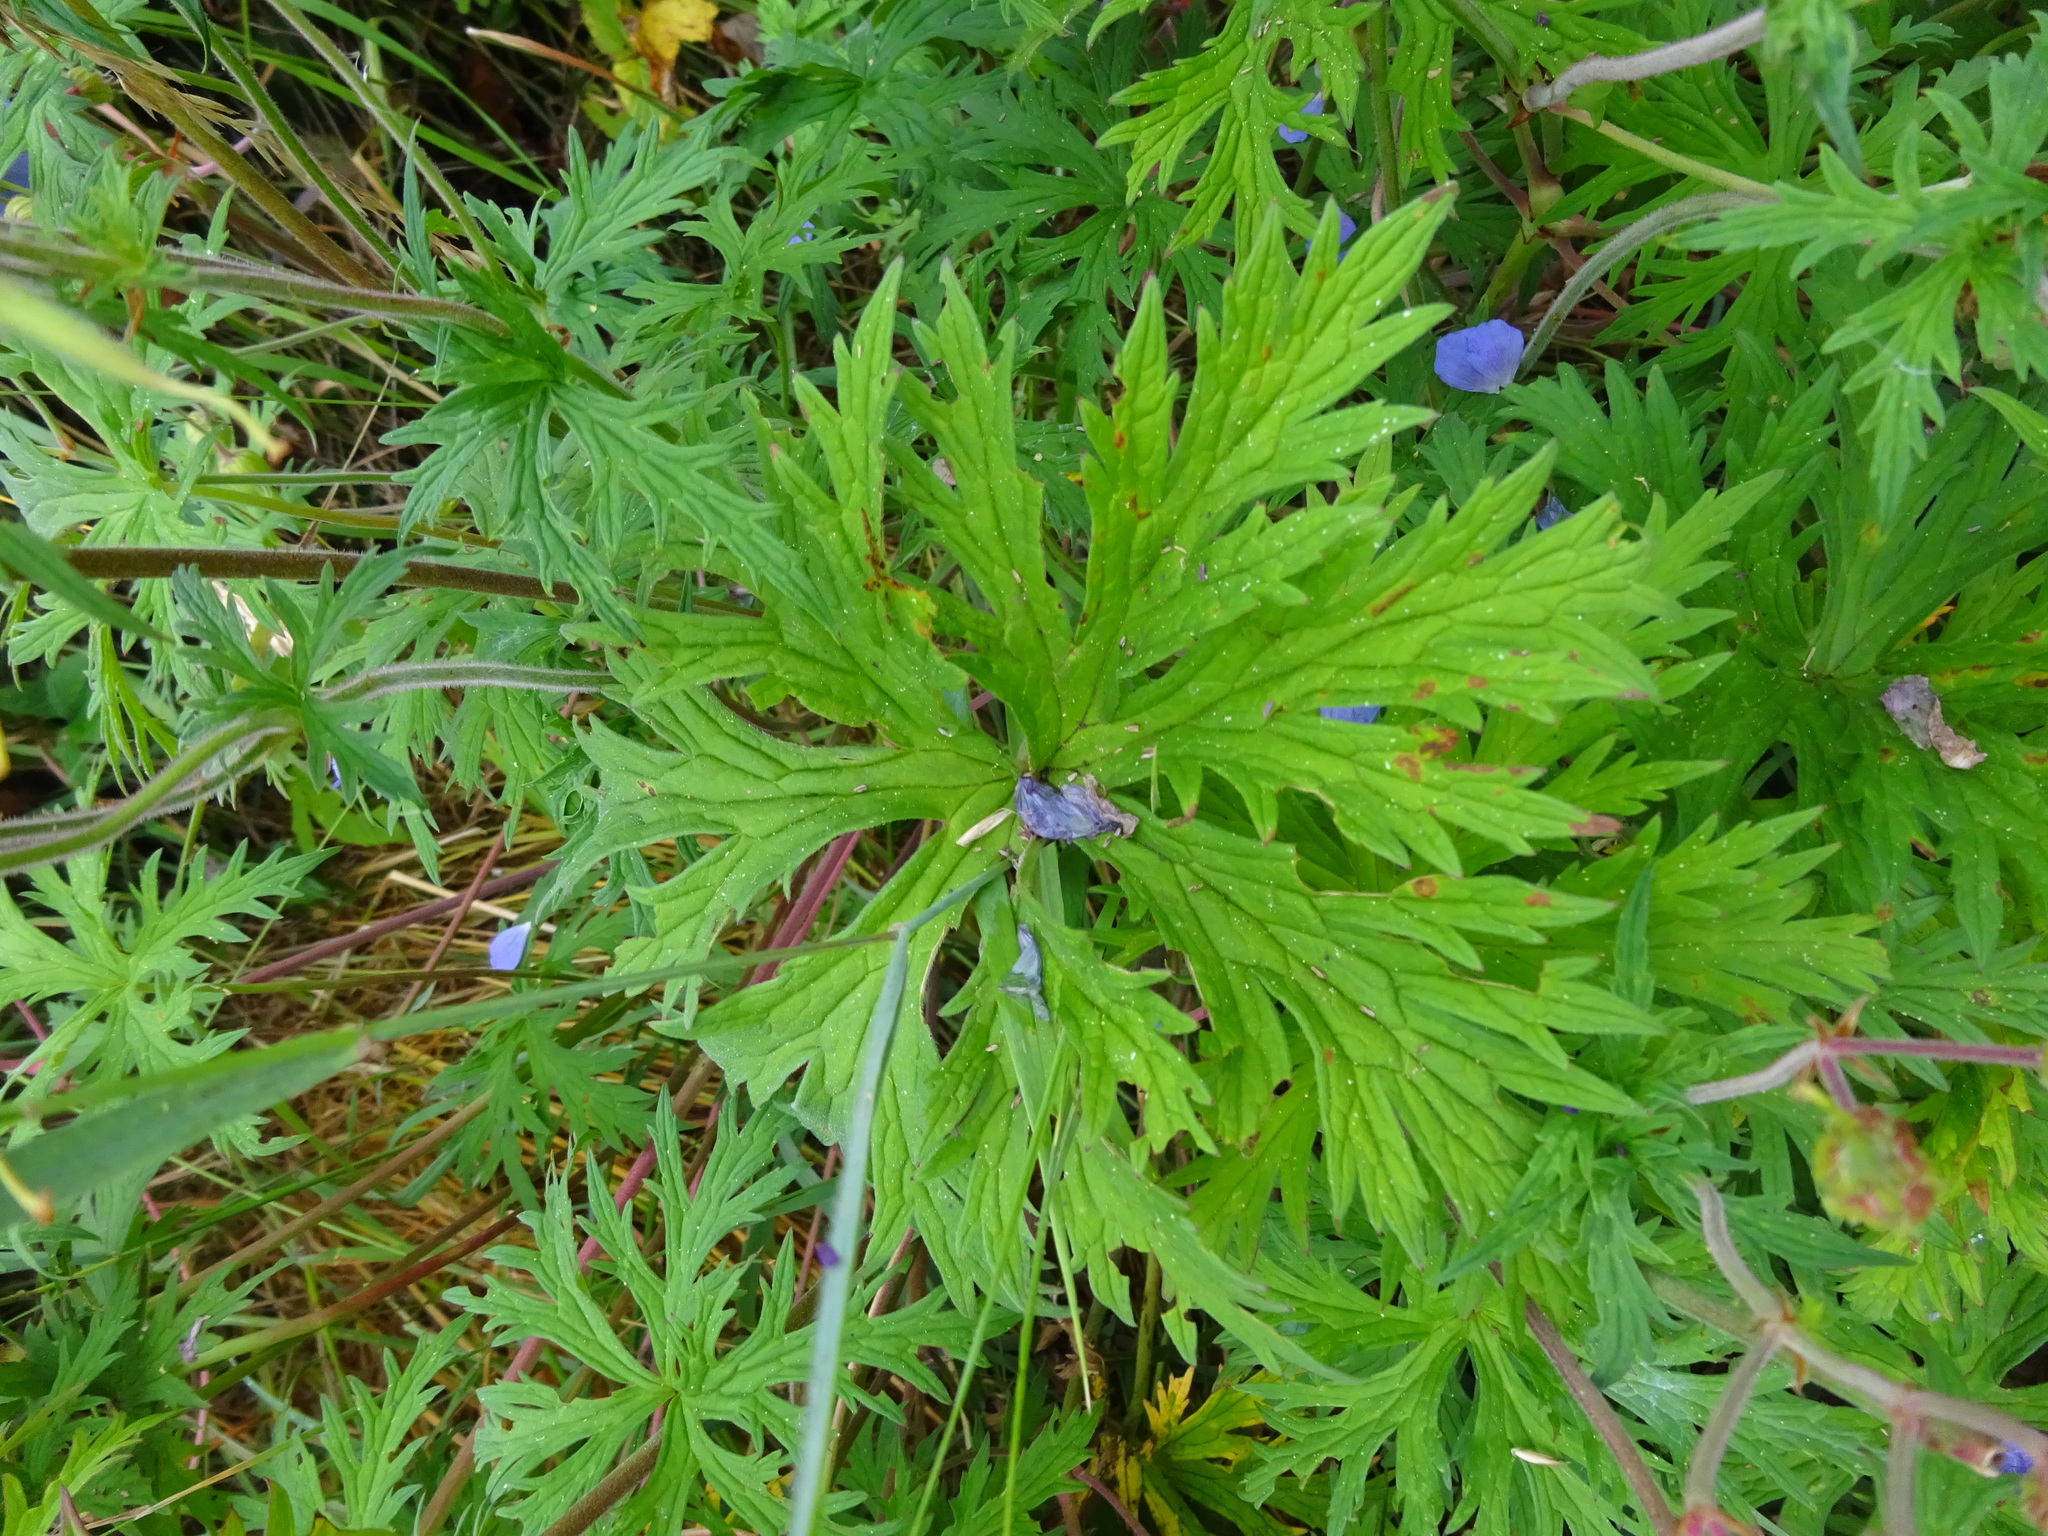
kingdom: Plantae
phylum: Tracheophyta
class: Magnoliopsida
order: Geraniales
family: Geraniaceae
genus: Geranium
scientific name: Geranium pratense
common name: Meadow crane's-bill
